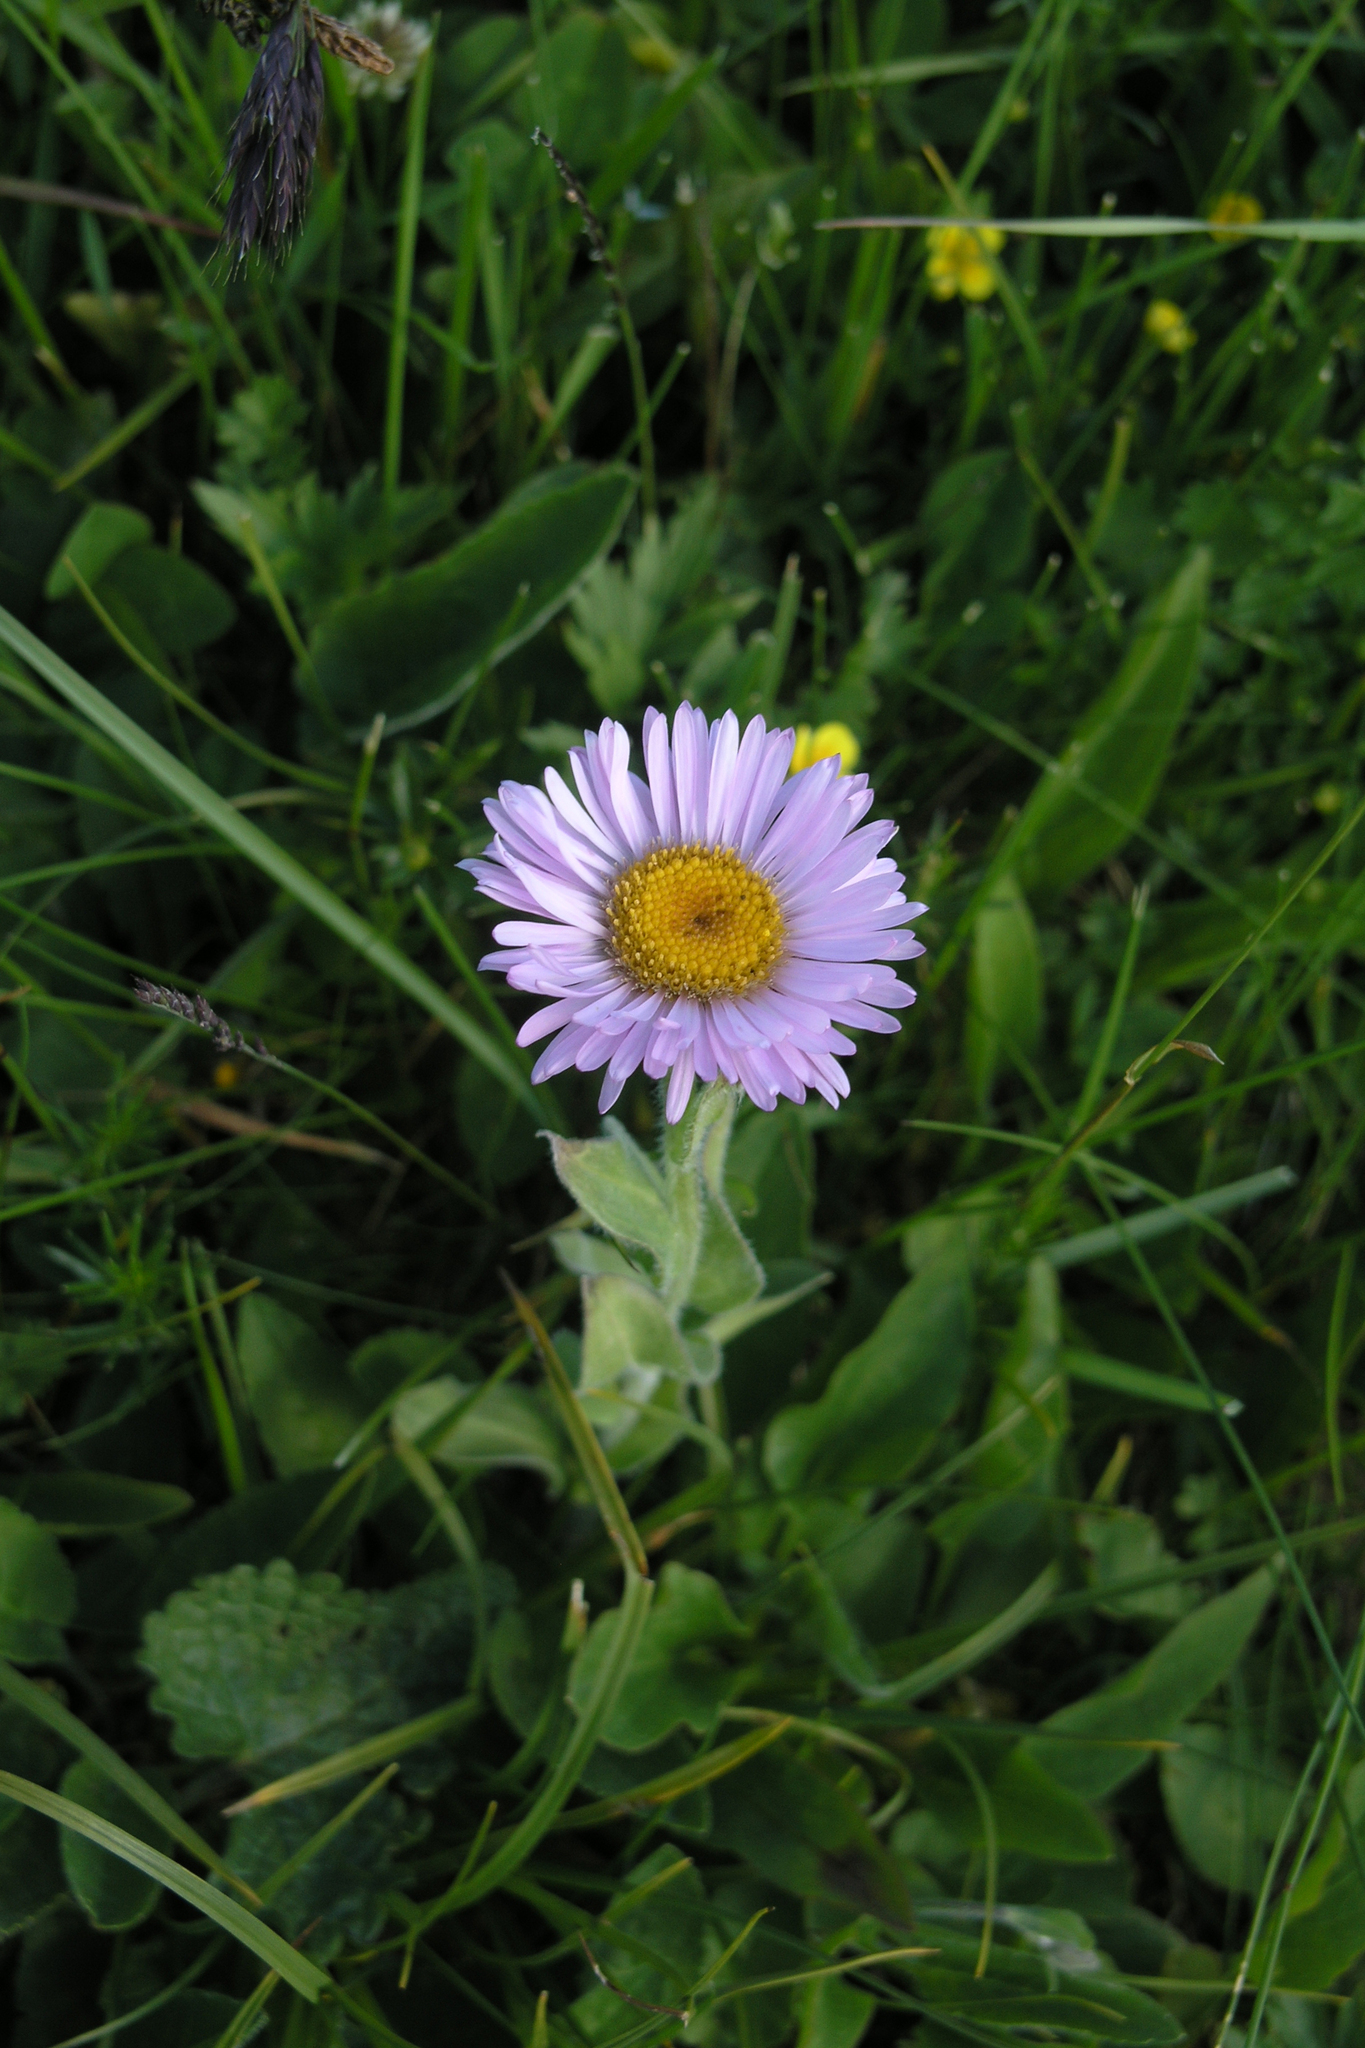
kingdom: Plantae
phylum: Tracheophyta
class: Magnoliopsida
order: Asterales
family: Asteraceae
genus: Erigeron
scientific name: Erigeron caucasicus
